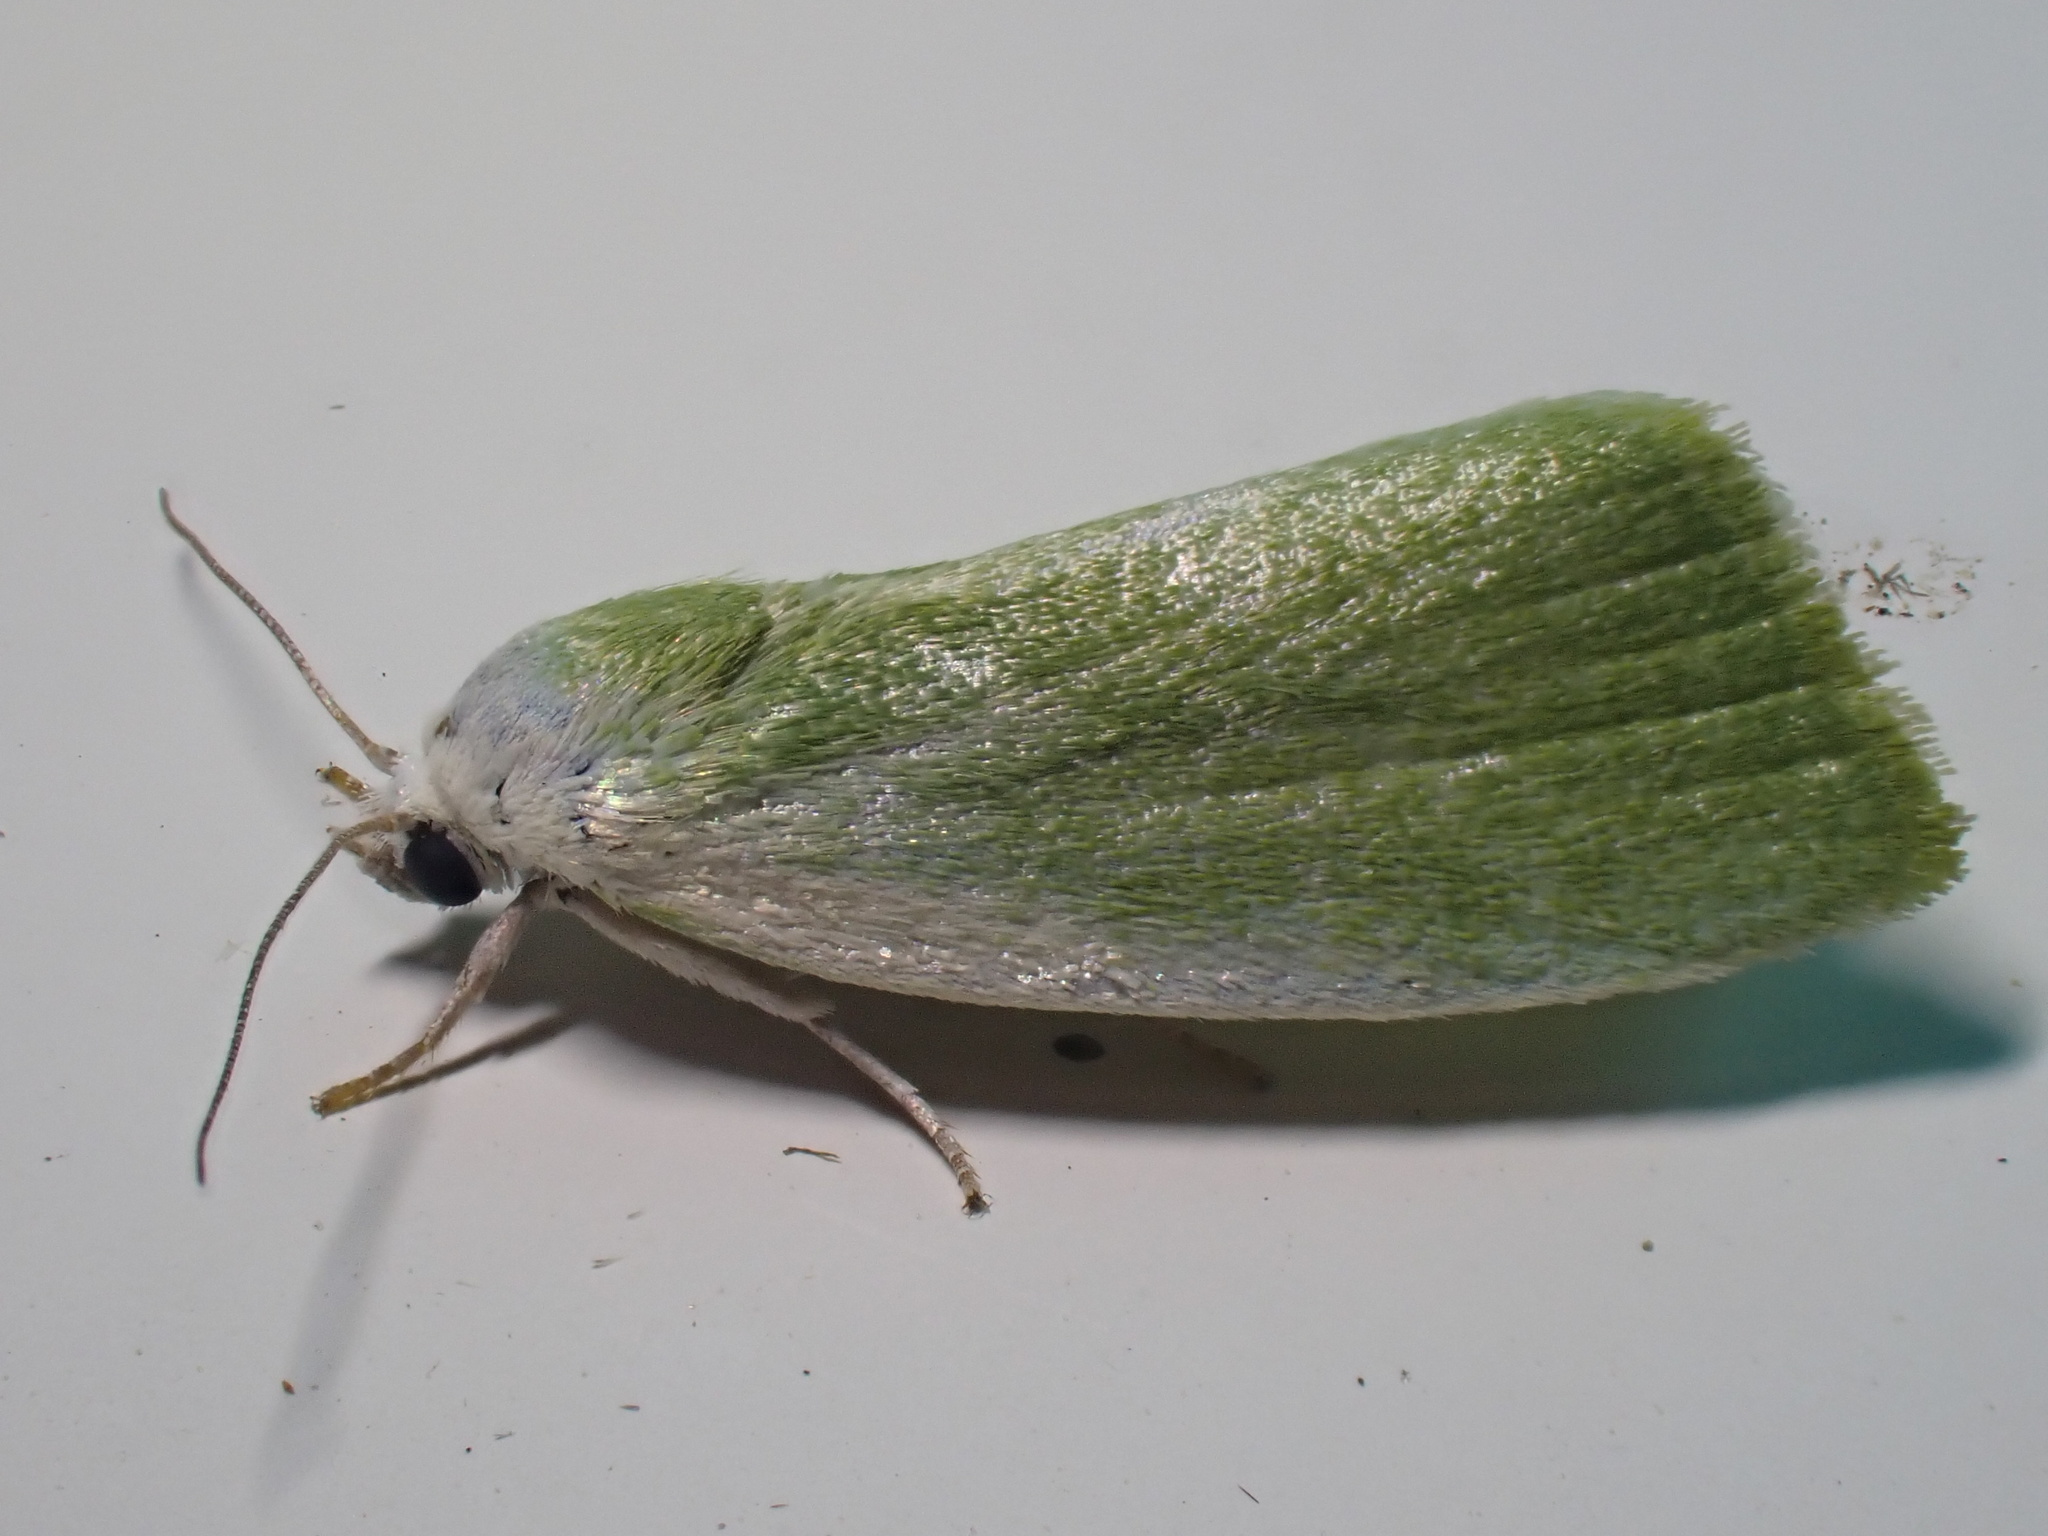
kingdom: Animalia
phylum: Arthropoda
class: Insecta
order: Lepidoptera
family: Nolidae
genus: Earias
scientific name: Earias clorana
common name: Cream-bordered green pea
